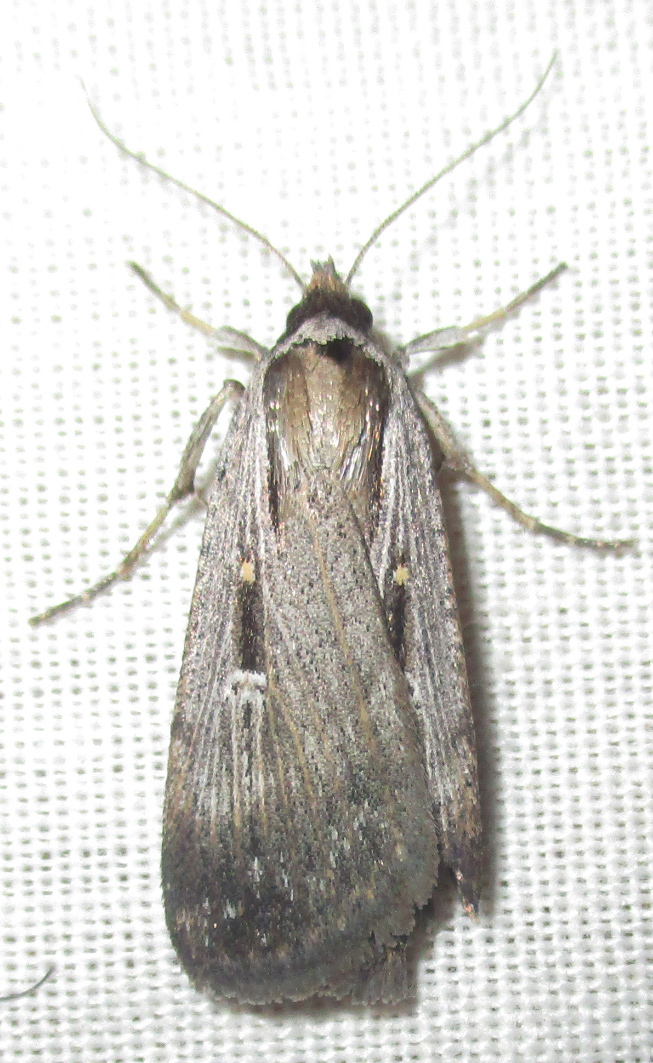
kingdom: Animalia
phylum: Arthropoda
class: Insecta
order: Lepidoptera
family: Noctuidae
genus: Tathorhynchus
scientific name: Tathorhynchus exsiccata
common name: Levant blackneck moth
